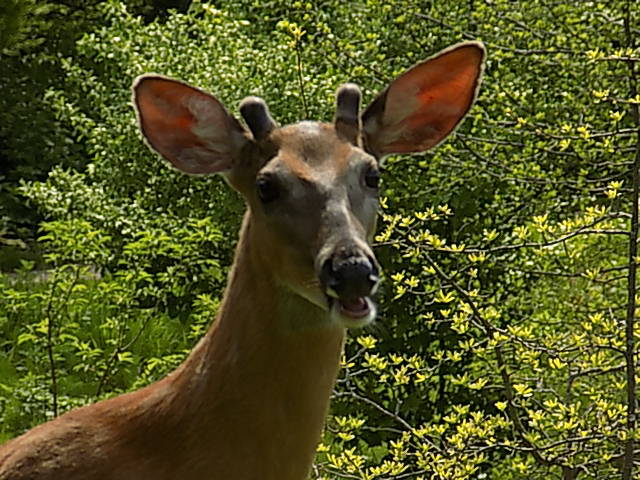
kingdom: Animalia
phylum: Chordata
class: Mammalia
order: Artiodactyla
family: Cervidae
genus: Odocoileus
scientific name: Odocoileus virginianus
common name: White-tailed deer
